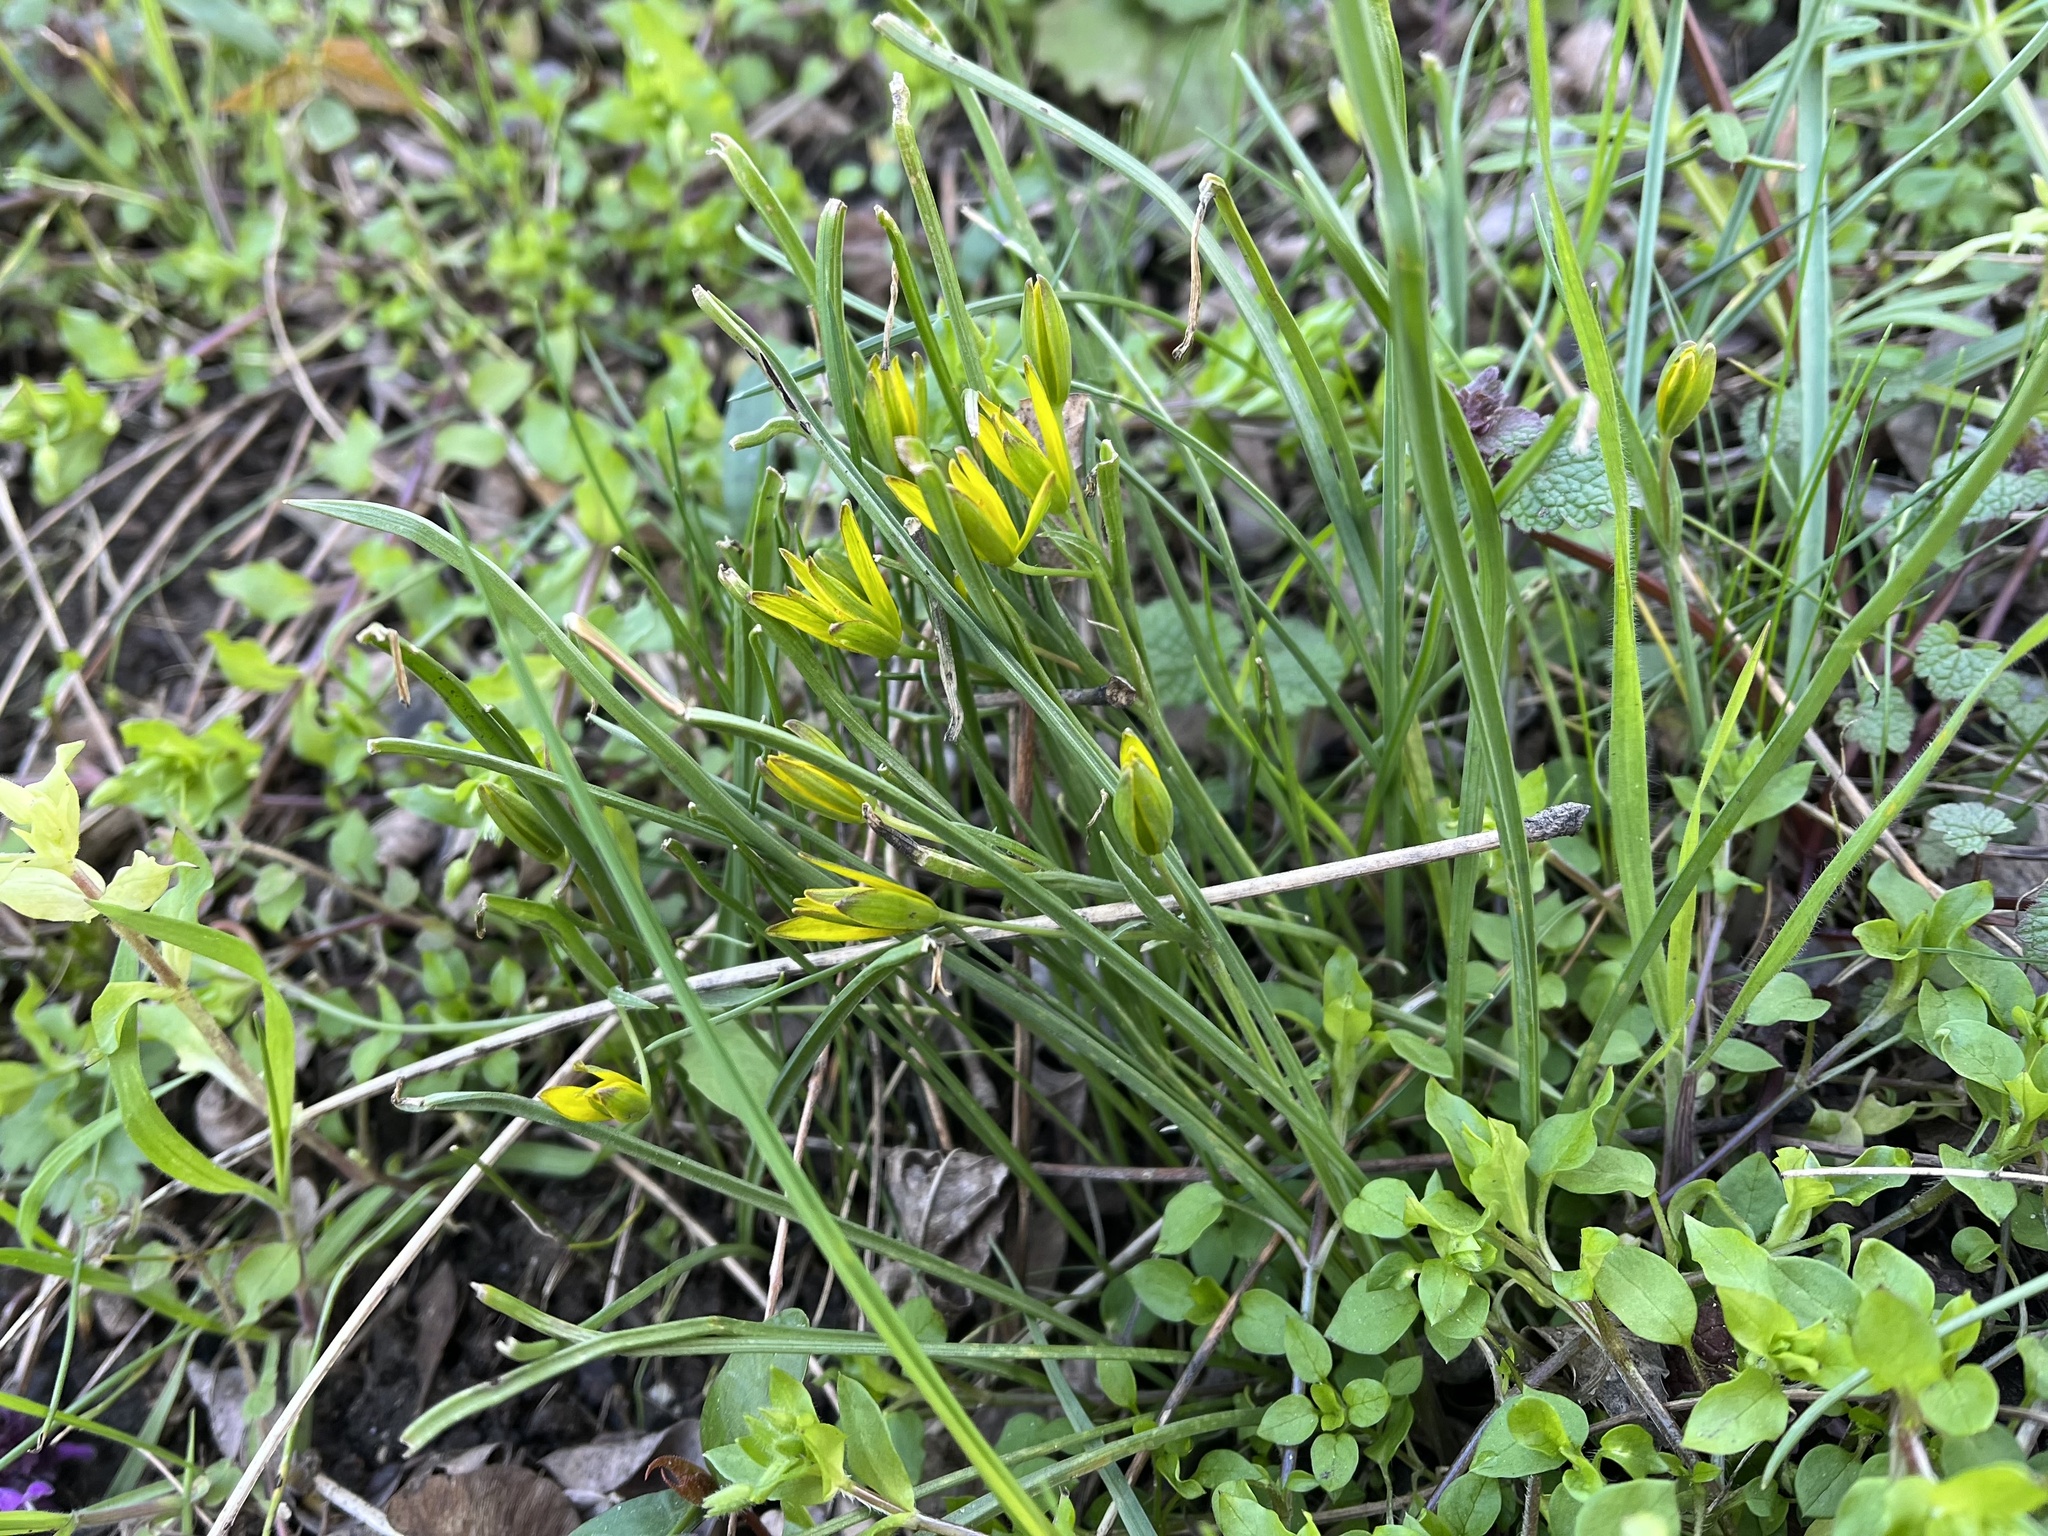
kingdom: Plantae
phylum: Tracheophyta
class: Liliopsida
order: Liliales
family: Liliaceae
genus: Gagea
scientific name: Gagea villosa
